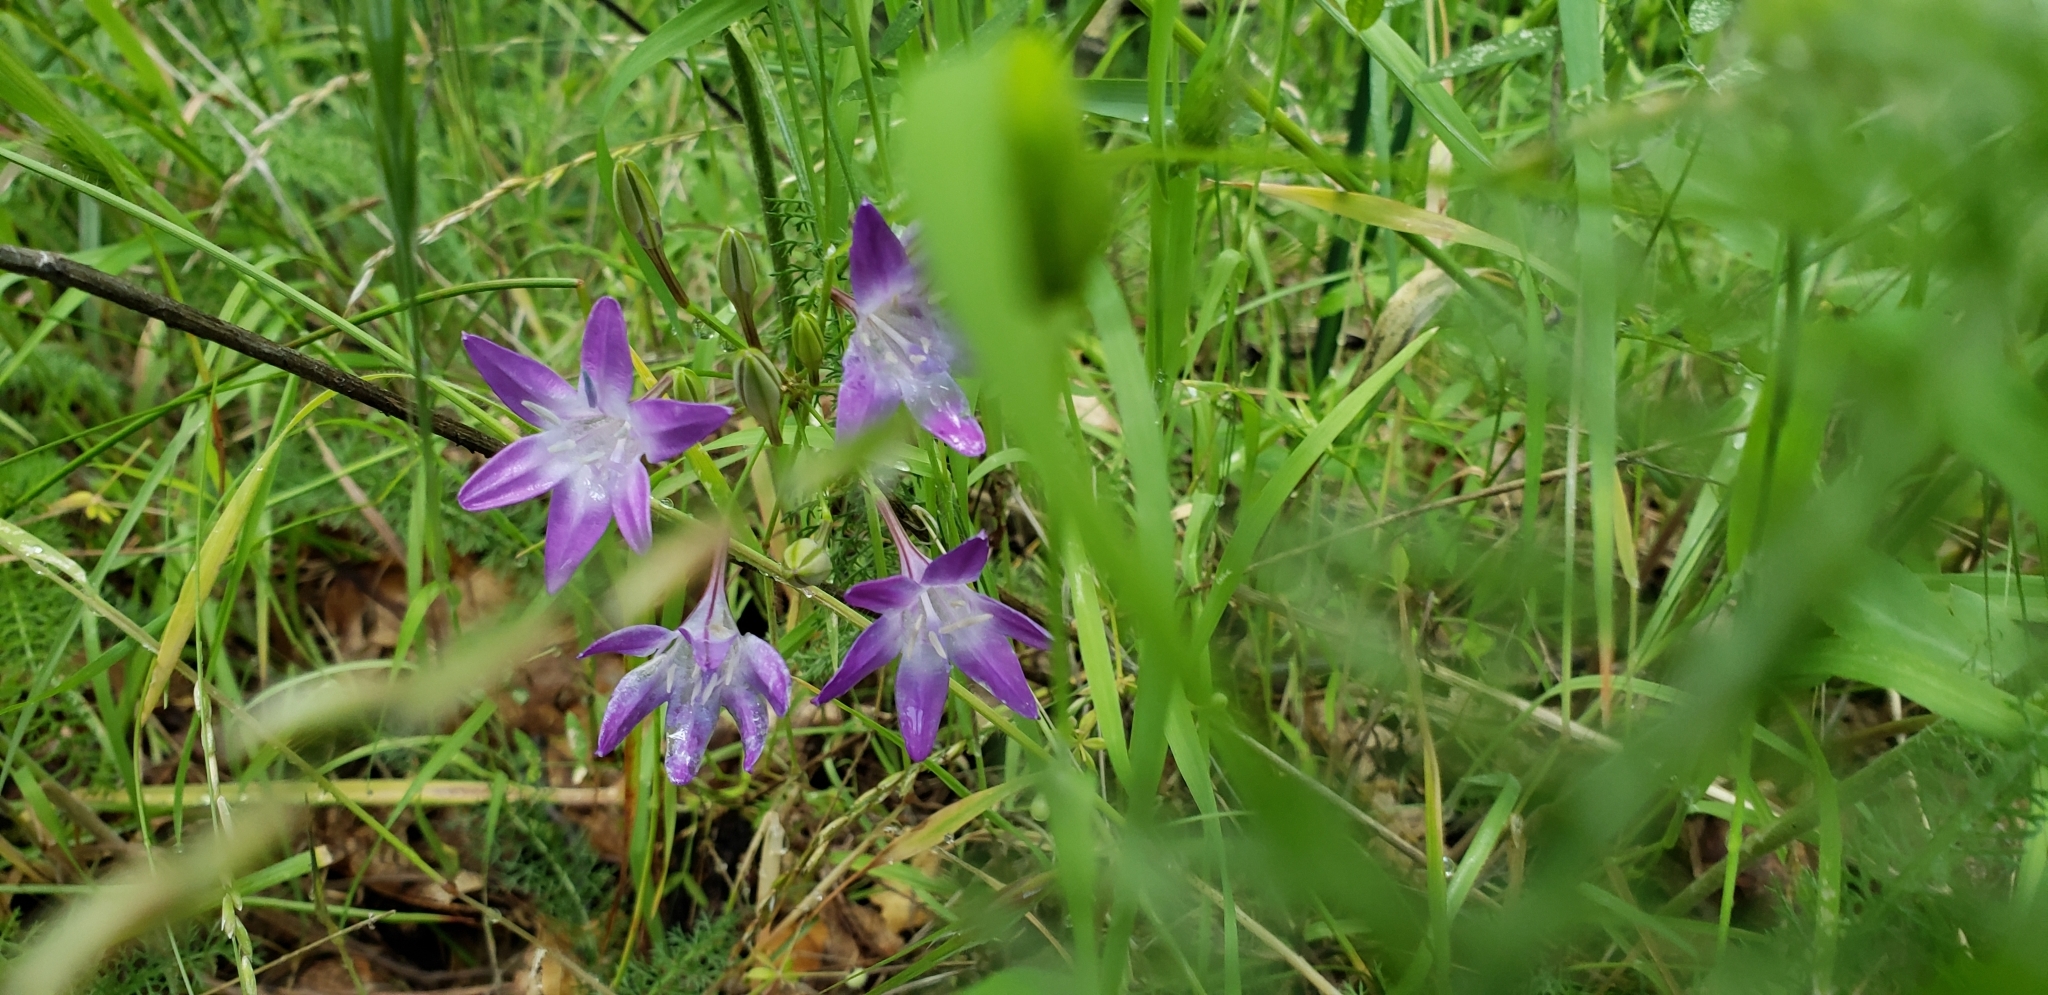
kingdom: Plantae
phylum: Tracheophyta
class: Liliopsida
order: Asparagales
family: Asparagaceae
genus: Triteleia
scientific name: Triteleia bridgesii
